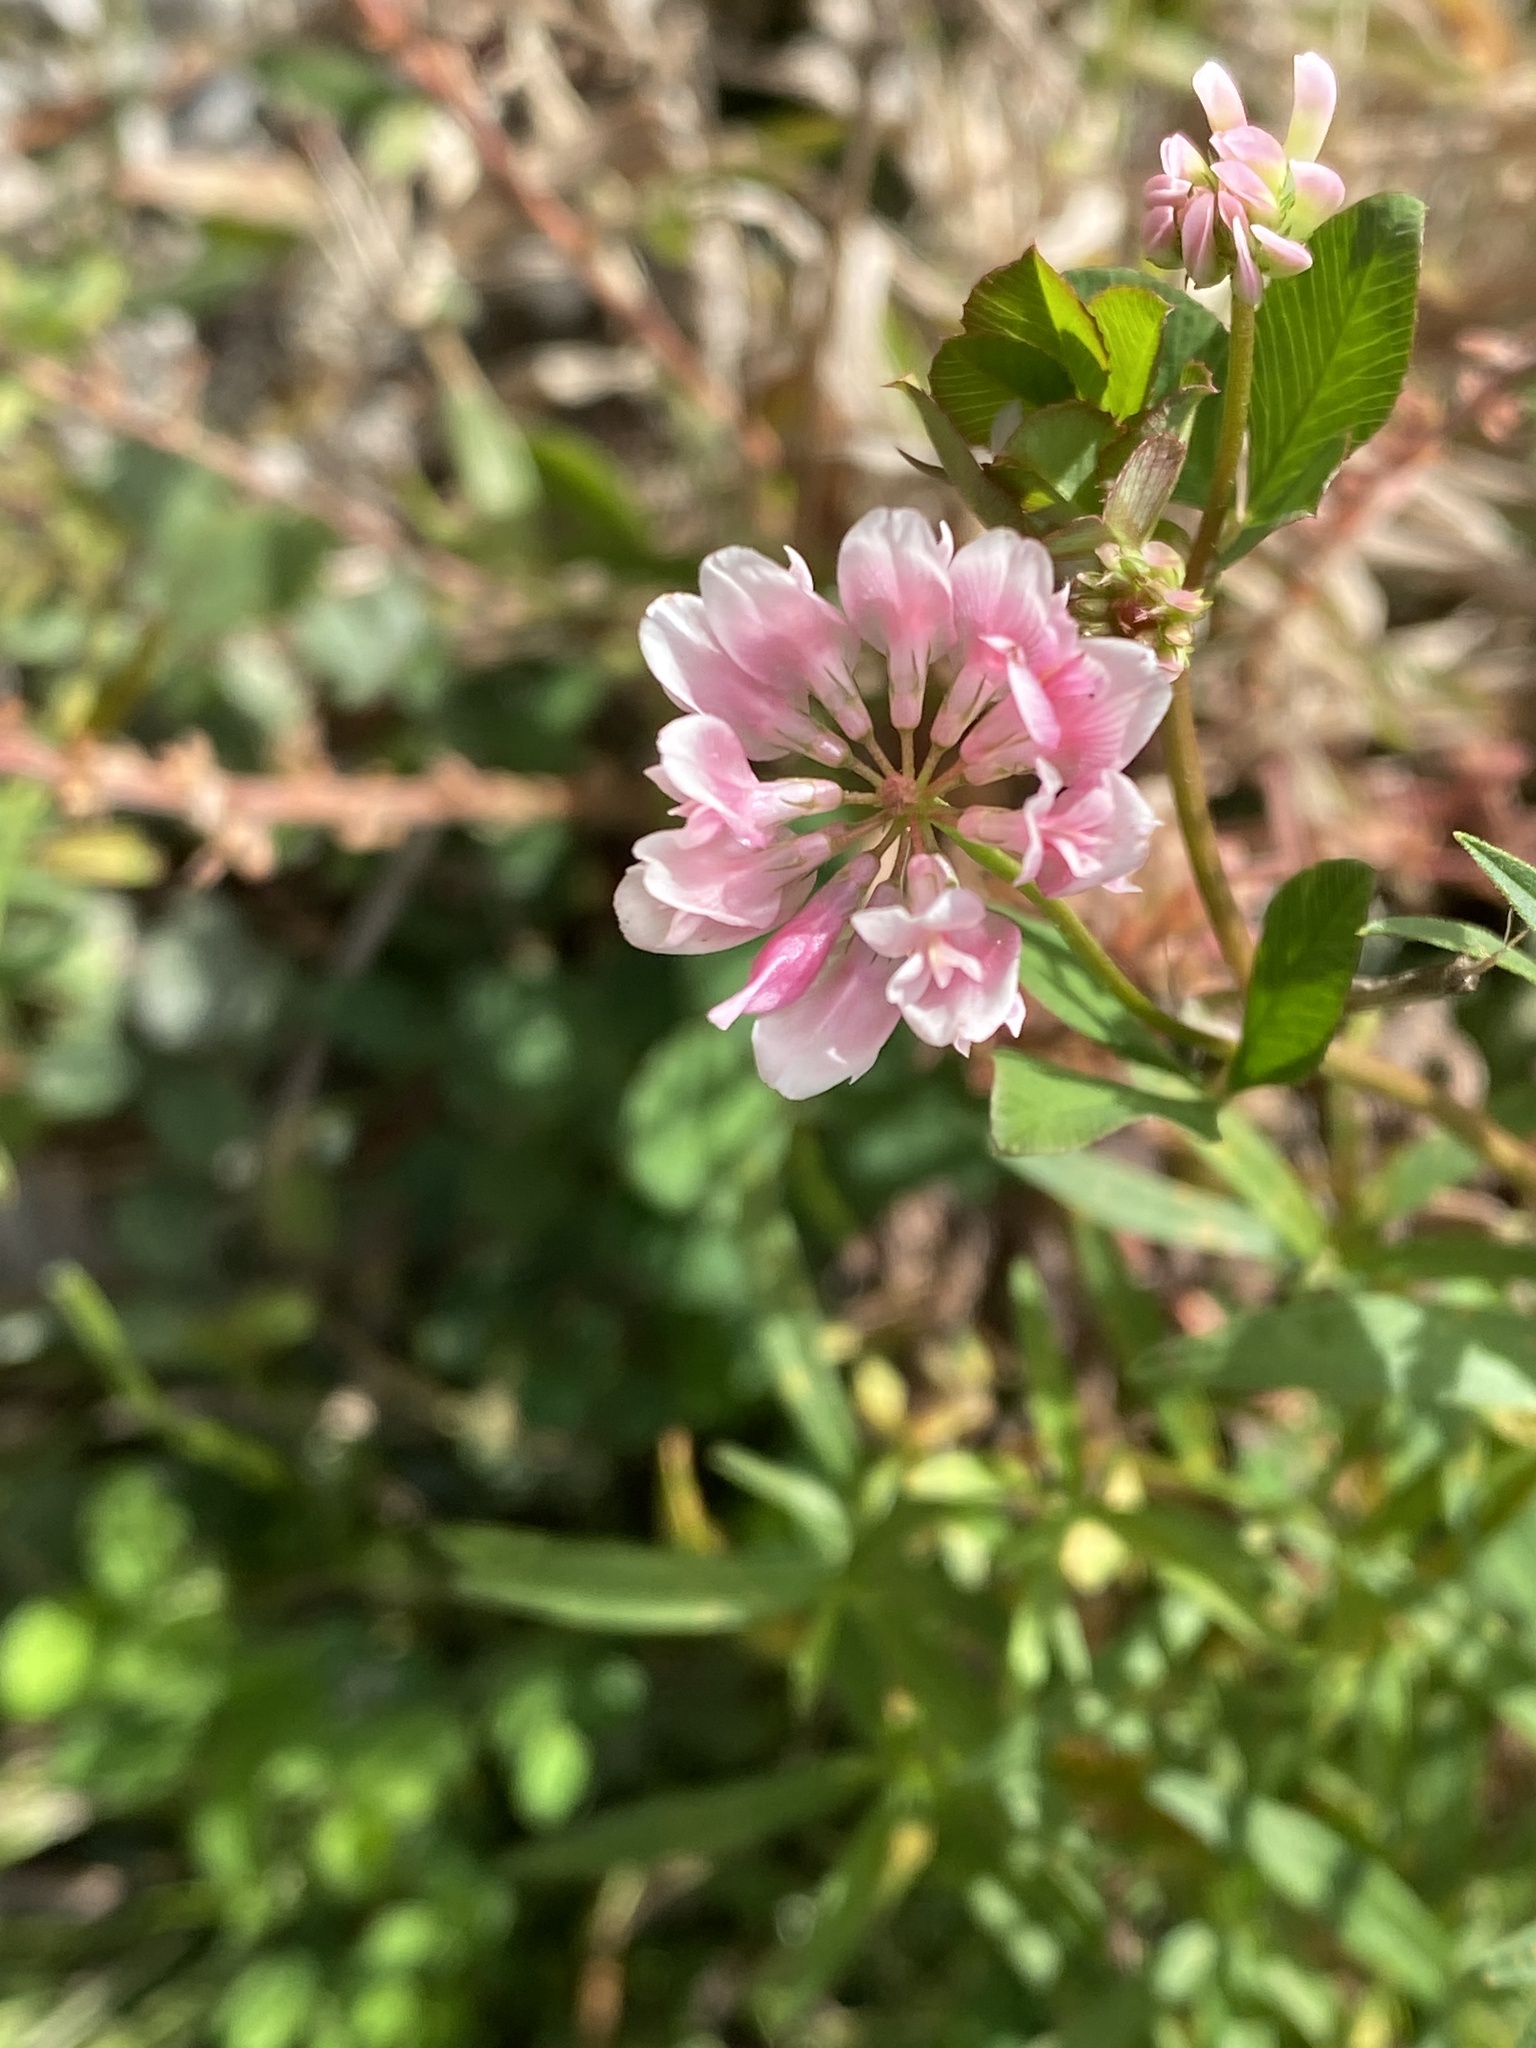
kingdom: Plantae
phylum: Tracheophyta
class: Magnoliopsida
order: Fabales
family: Fabaceae
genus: Trifolium
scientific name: Trifolium hybridum
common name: Alsike clover
